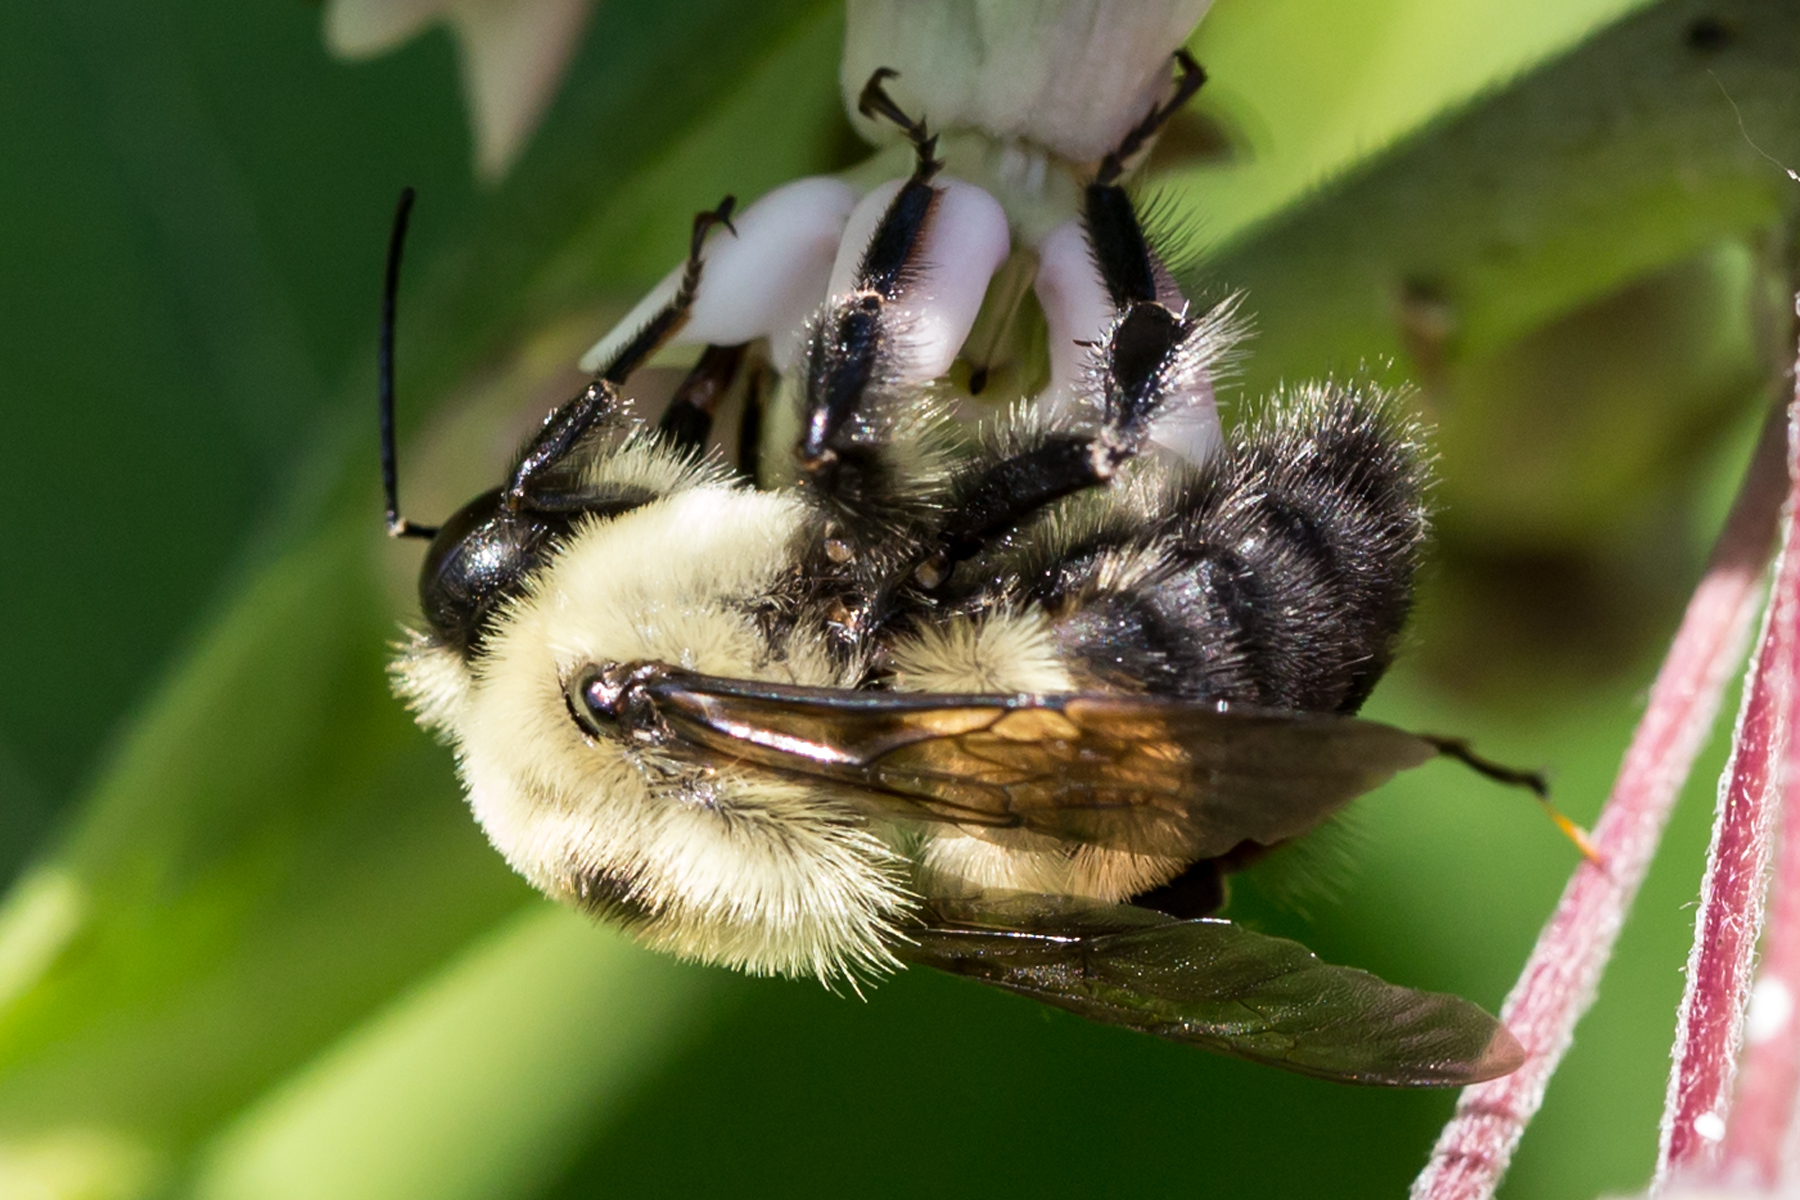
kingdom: Animalia
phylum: Arthropoda
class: Insecta
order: Hymenoptera
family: Apidae
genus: Bombus
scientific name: Bombus griseocollis
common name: Brown-belted bumble bee
